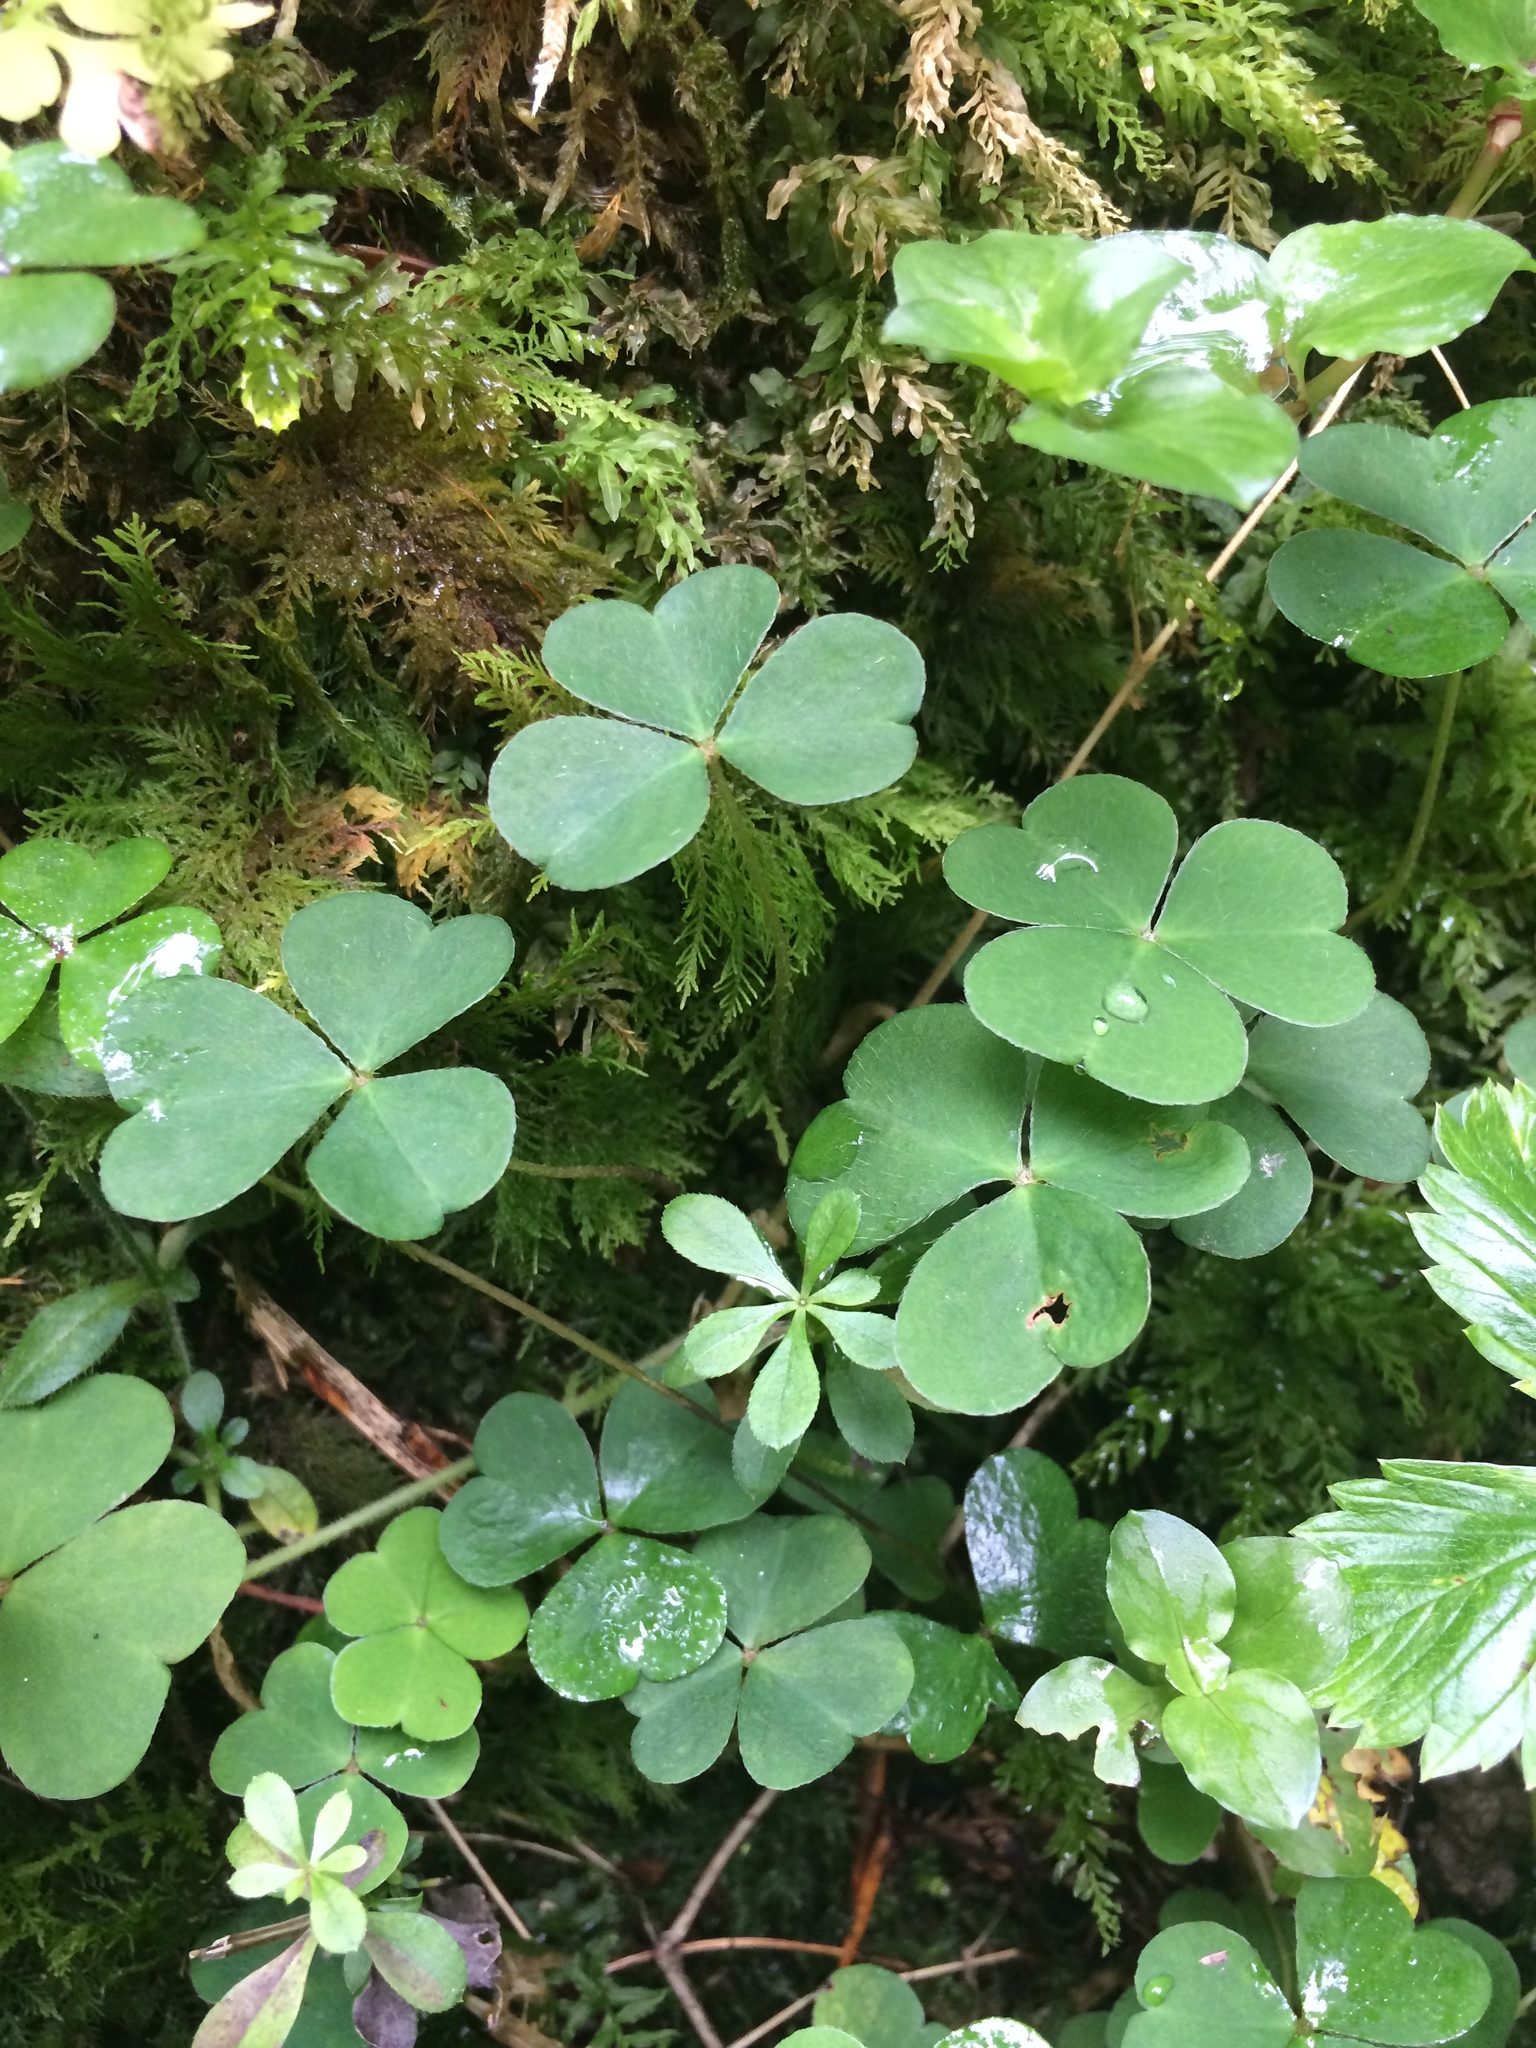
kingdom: Plantae
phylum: Tracheophyta
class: Magnoliopsida
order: Oxalidales
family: Oxalidaceae
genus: Oxalis
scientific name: Oxalis acetosella
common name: Wood-sorrel
